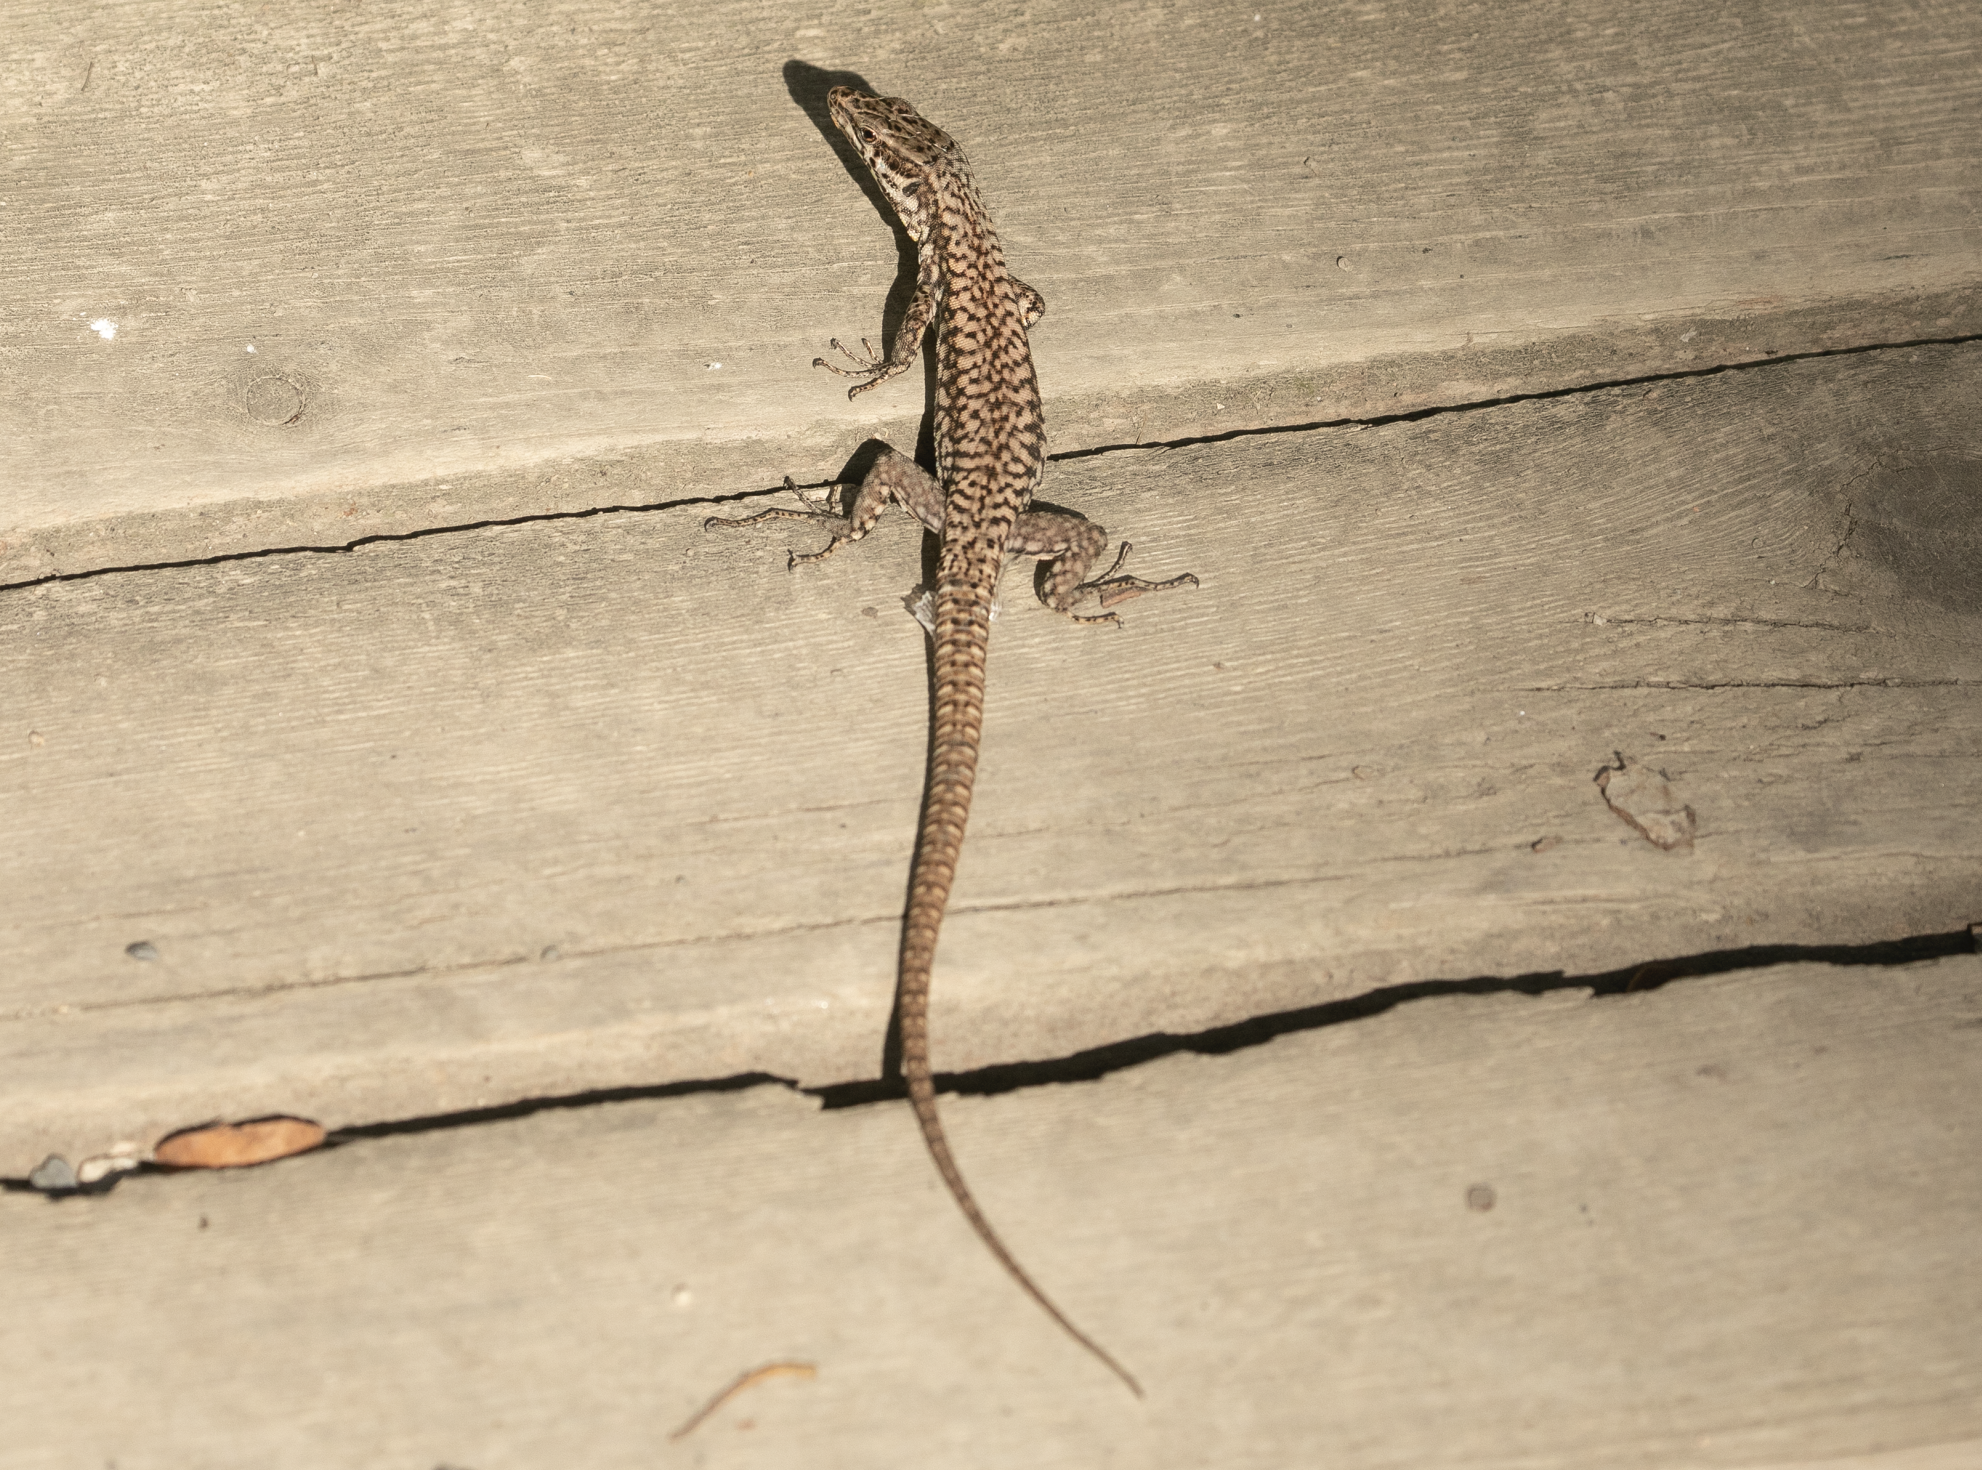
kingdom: Animalia
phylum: Chordata
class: Squamata
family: Lacertidae
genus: Podarcis
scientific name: Podarcis muralis
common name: Common wall lizard
